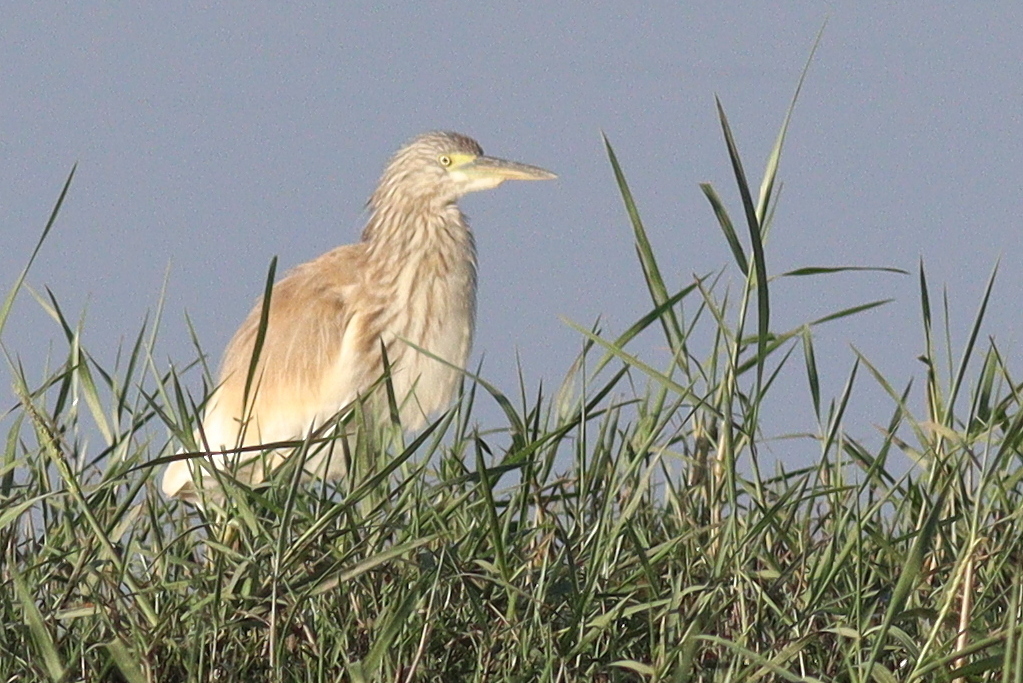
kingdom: Animalia
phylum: Chordata
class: Aves
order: Pelecaniformes
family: Ardeidae
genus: Ardeola
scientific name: Ardeola ralloides
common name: Squacco heron
